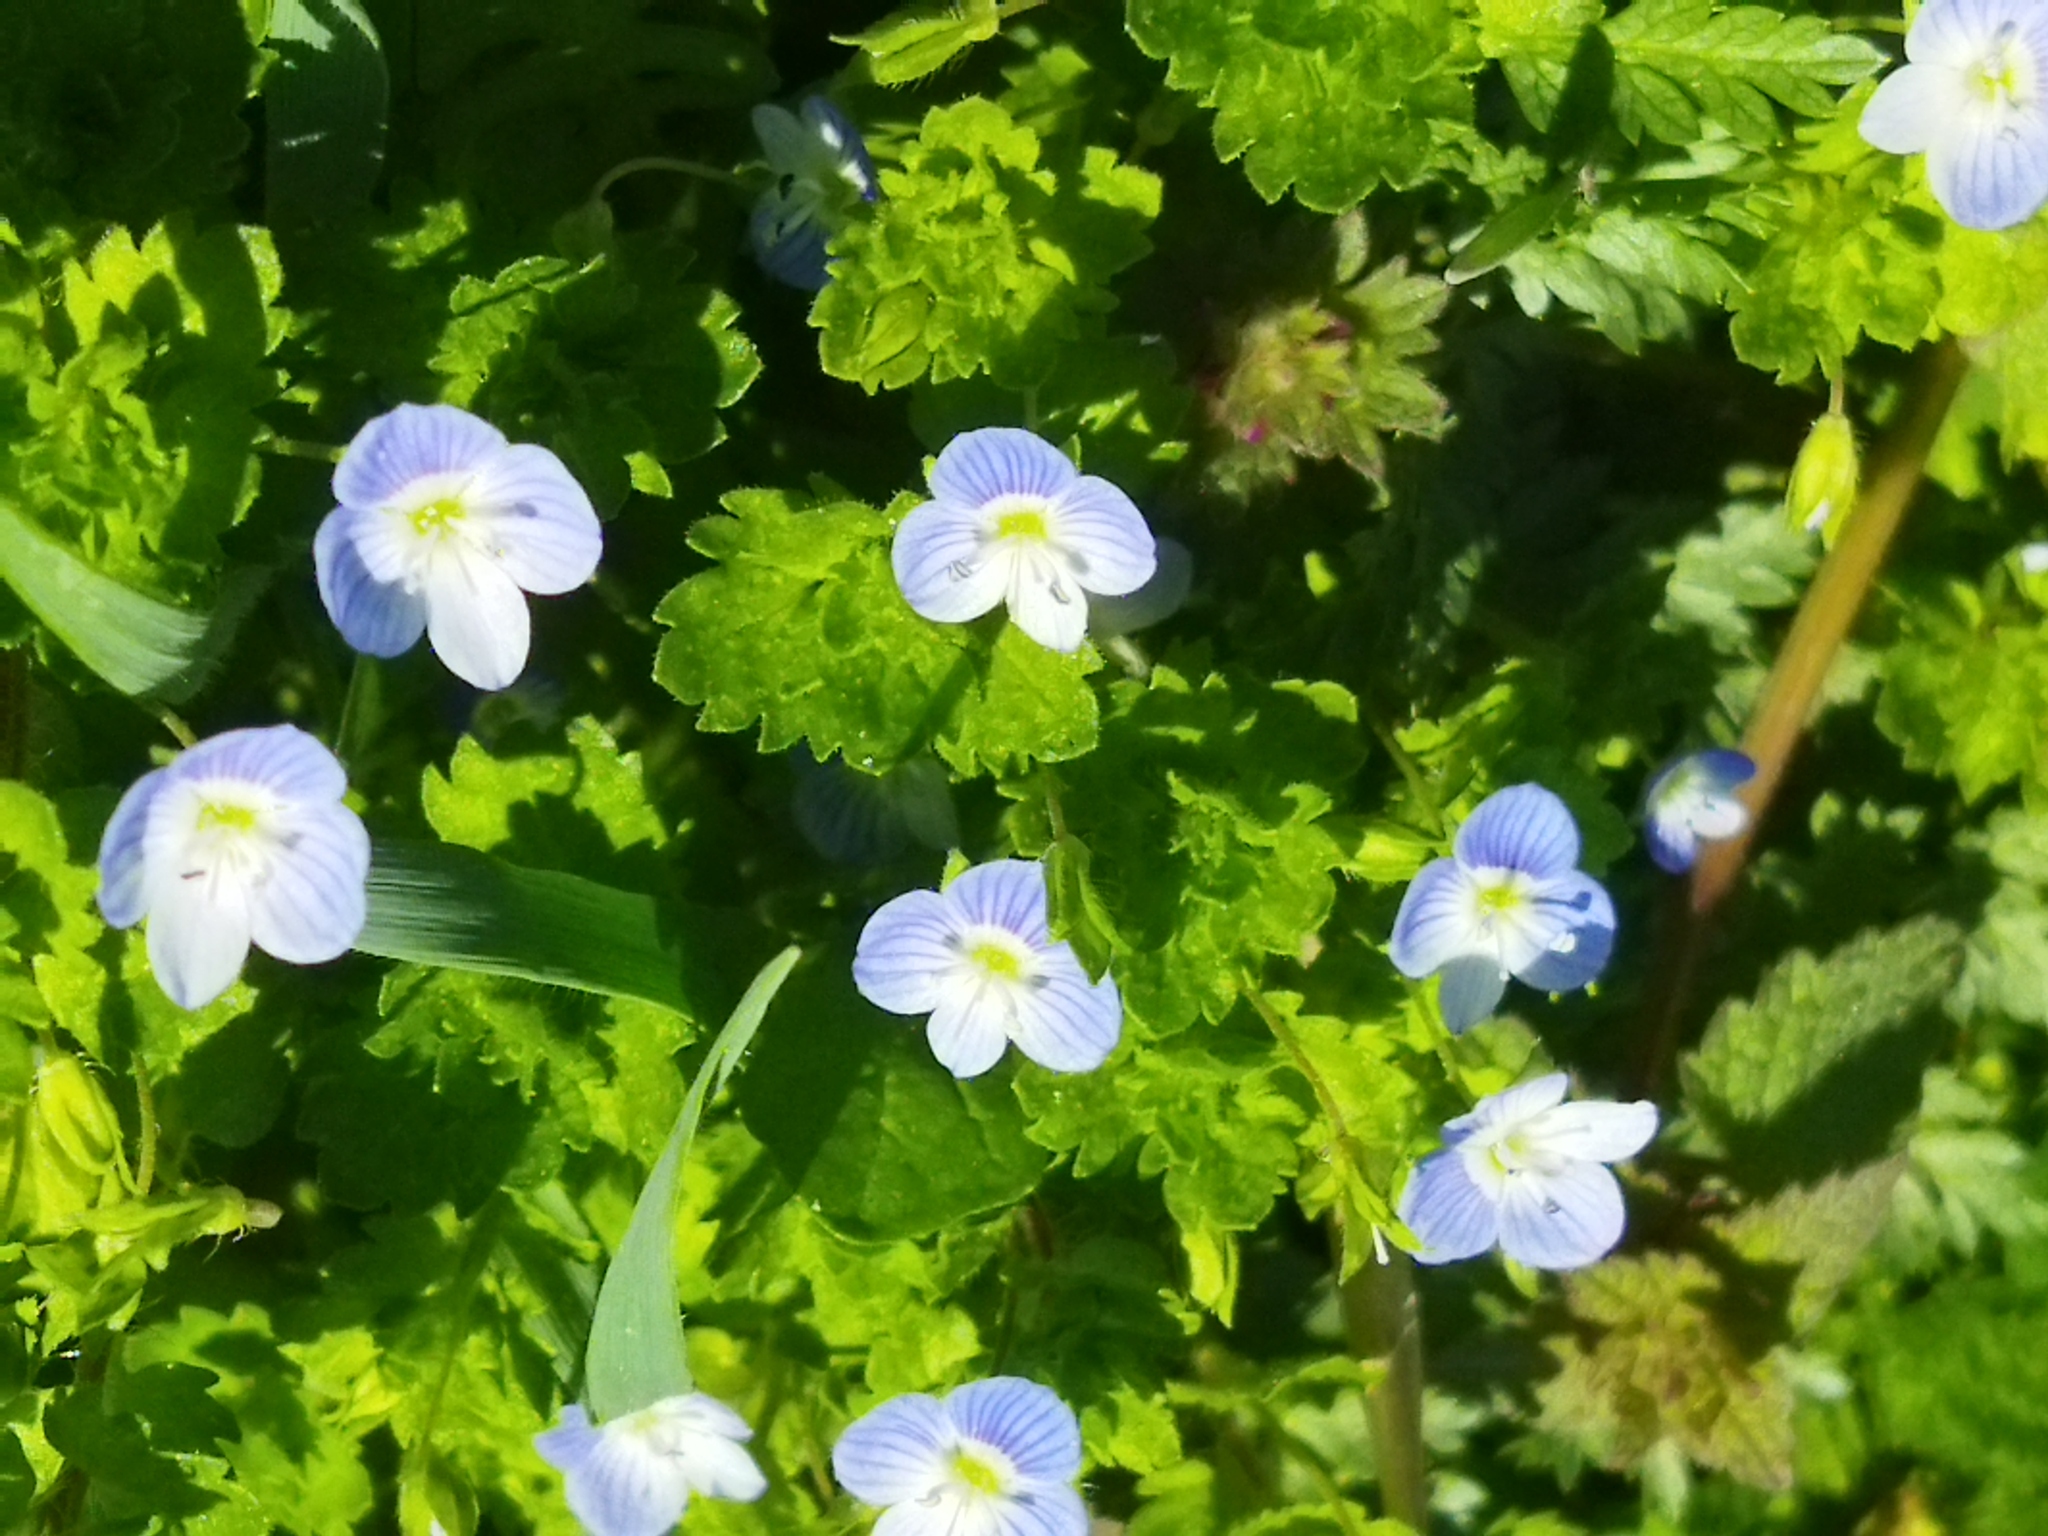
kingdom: Plantae
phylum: Tracheophyta
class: Magnoliopsida
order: Lamiales
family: Plantaginaceae
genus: Veronica
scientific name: Veronica persica
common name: Common field-speedwell
